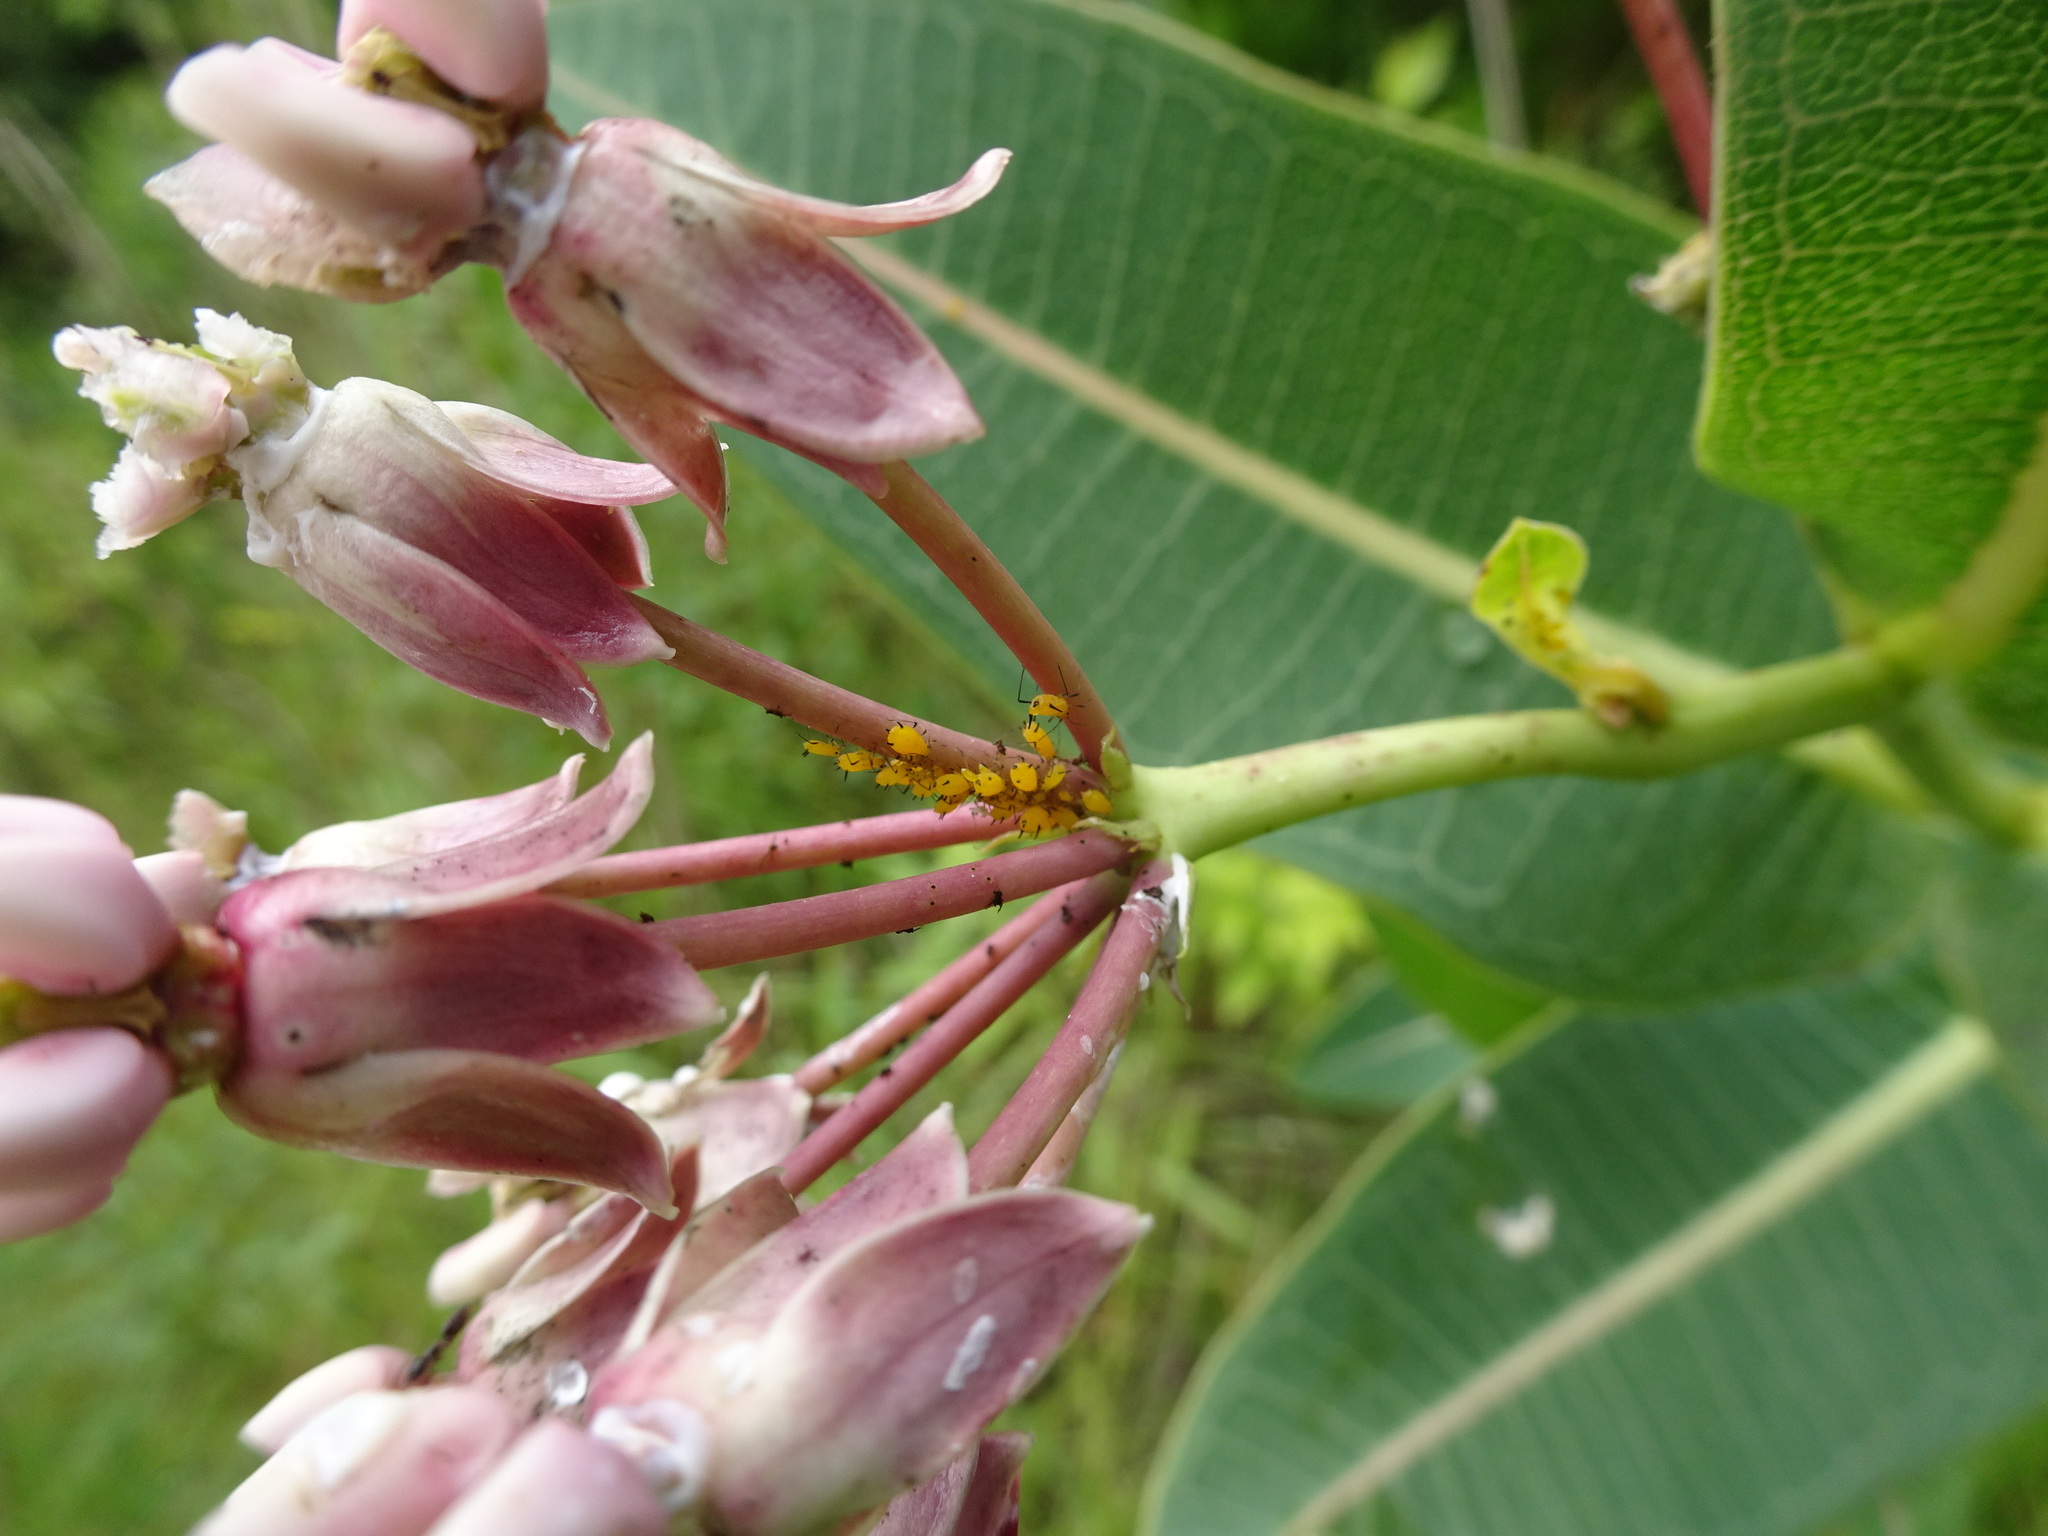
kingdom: Animalia
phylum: Arthropoda
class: Insecta
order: Hemiptera
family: Aphididae
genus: Aphis
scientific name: Aphis nerii
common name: Oleander aphid
